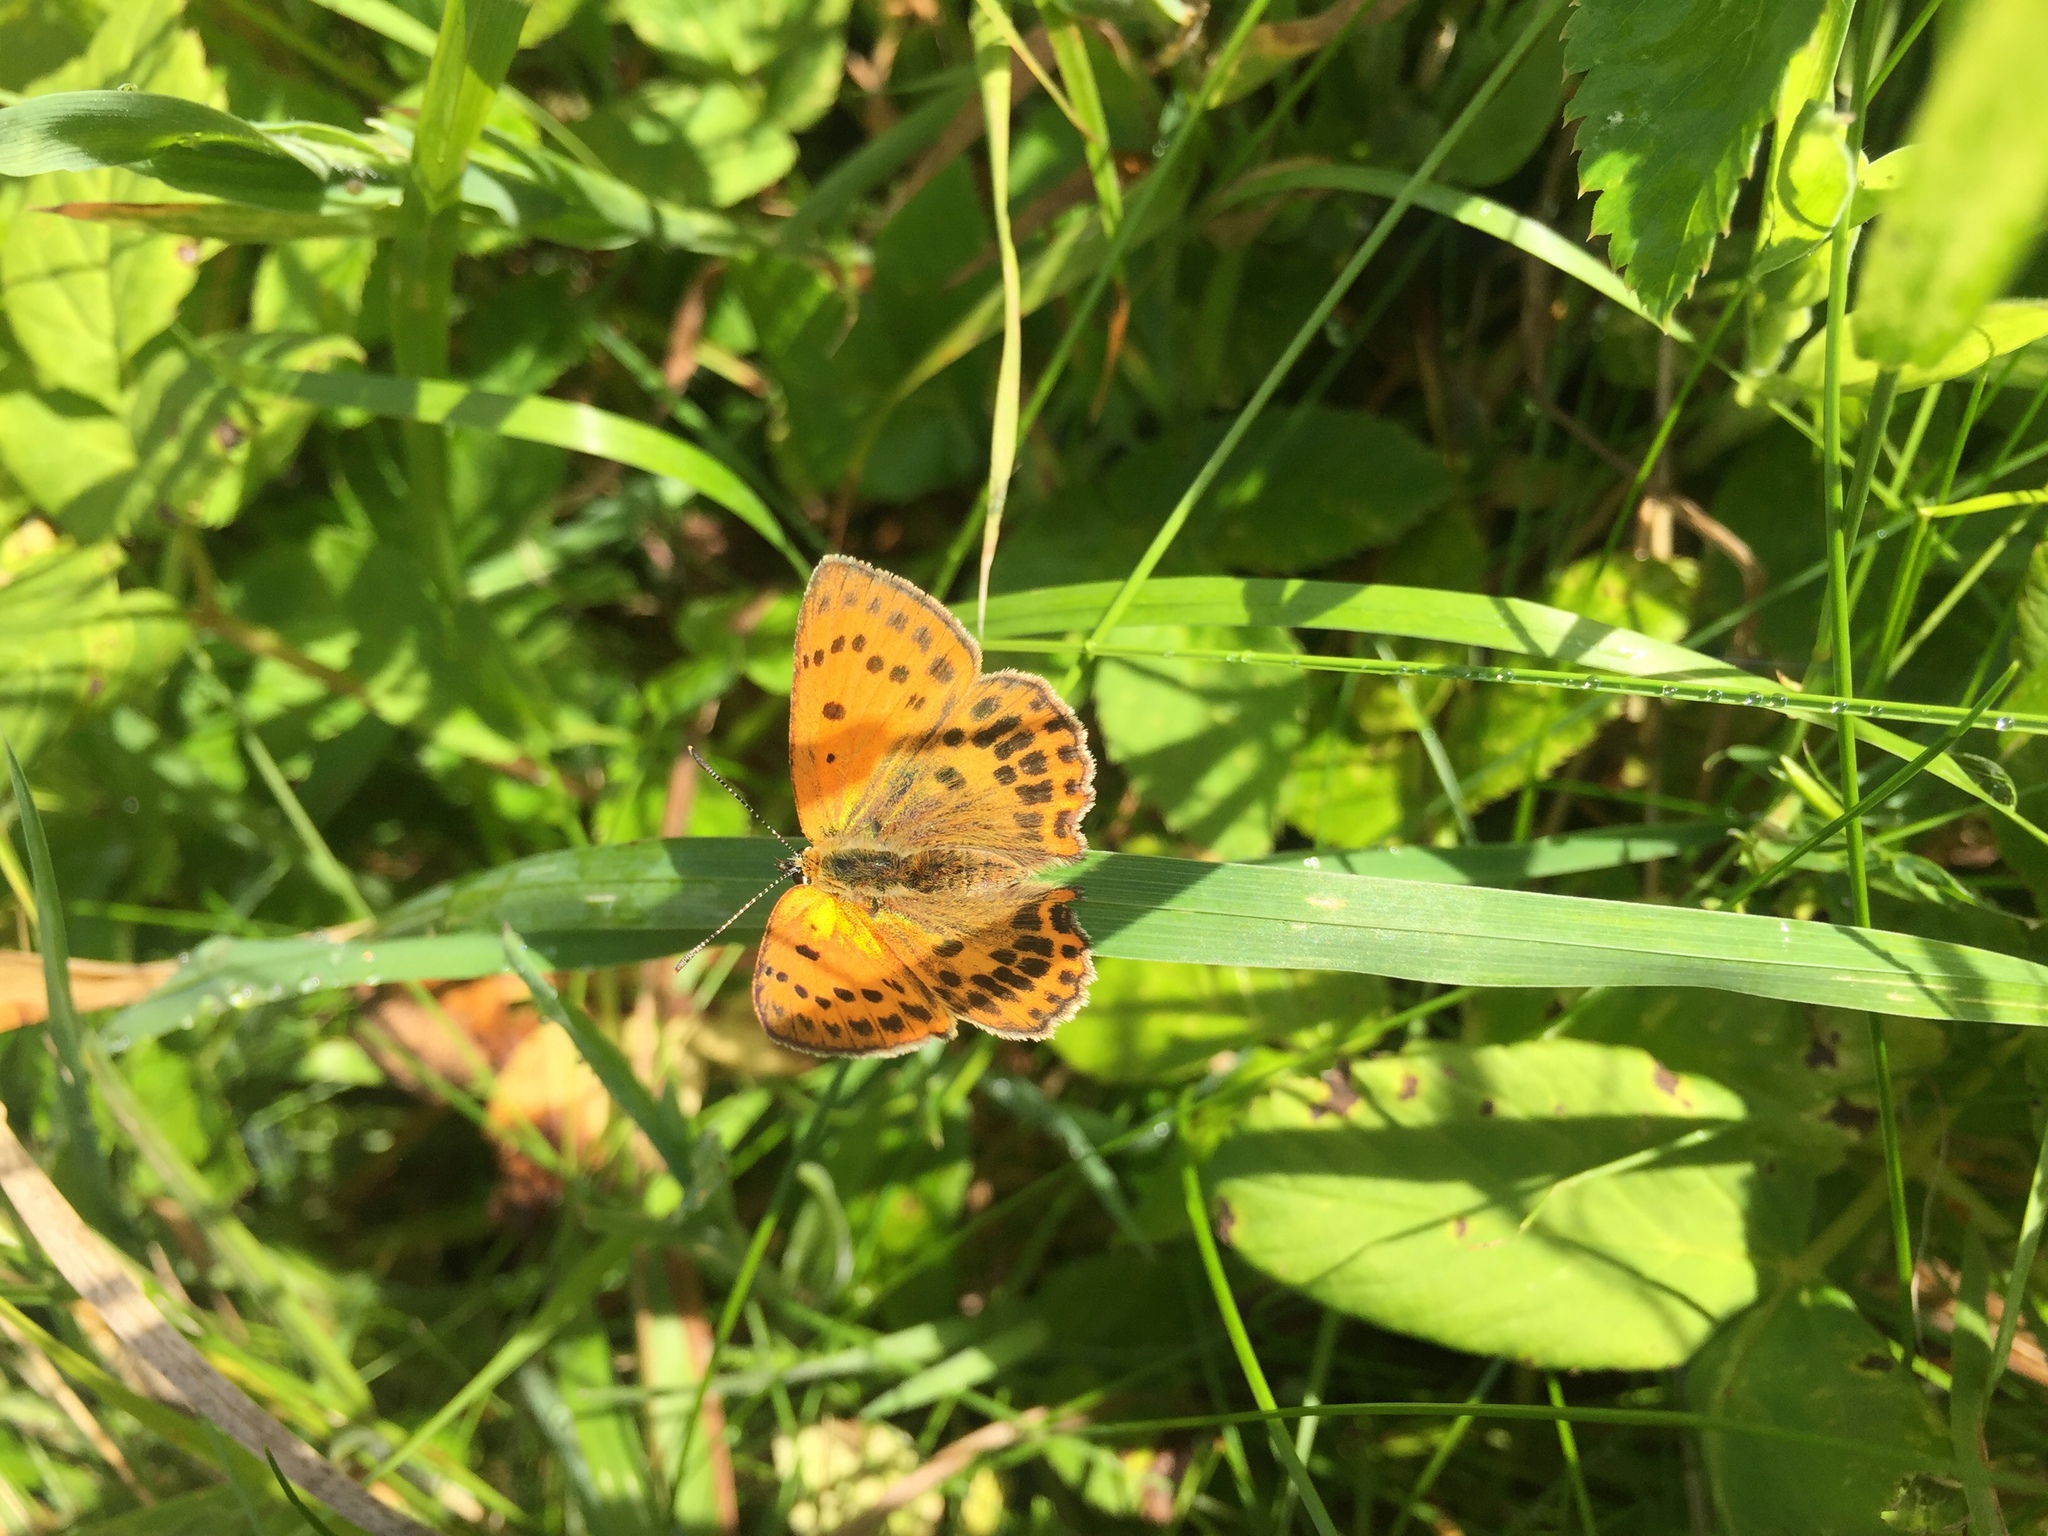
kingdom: Animalia
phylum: Arthropoda
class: Insecta
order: Lepidoptera
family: Lycaenidae
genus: Lycaena
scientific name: Lycaena virgaureae
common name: Scarce copper
